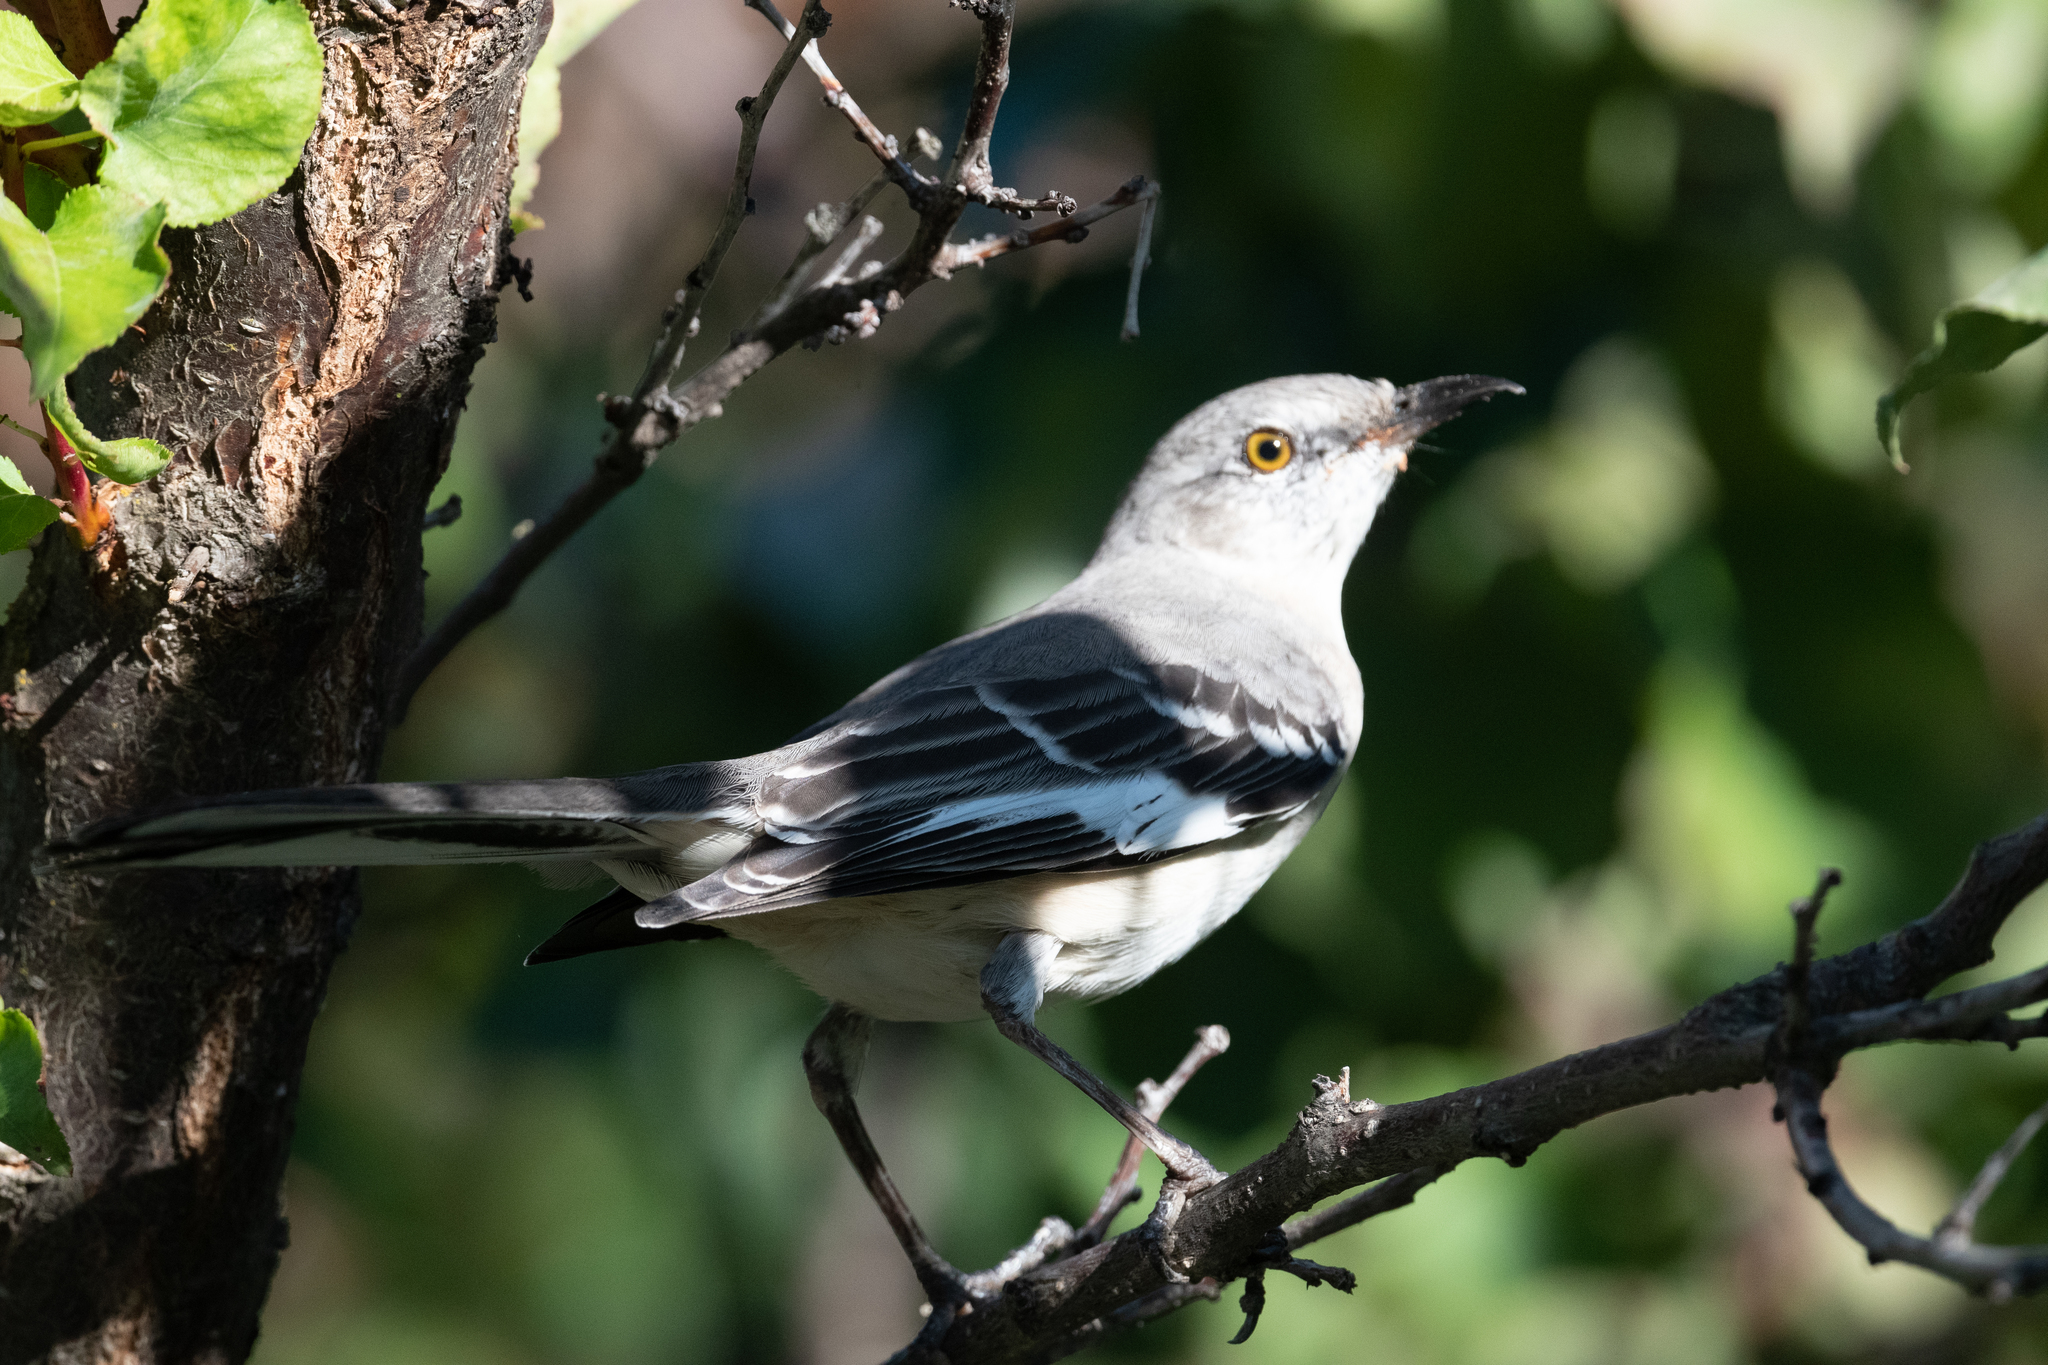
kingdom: Animalia
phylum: Chordata
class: Aves
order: Passeriformes
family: Mimidae
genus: Mimus
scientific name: Mimus polyglottos
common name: Northern mockingbird
